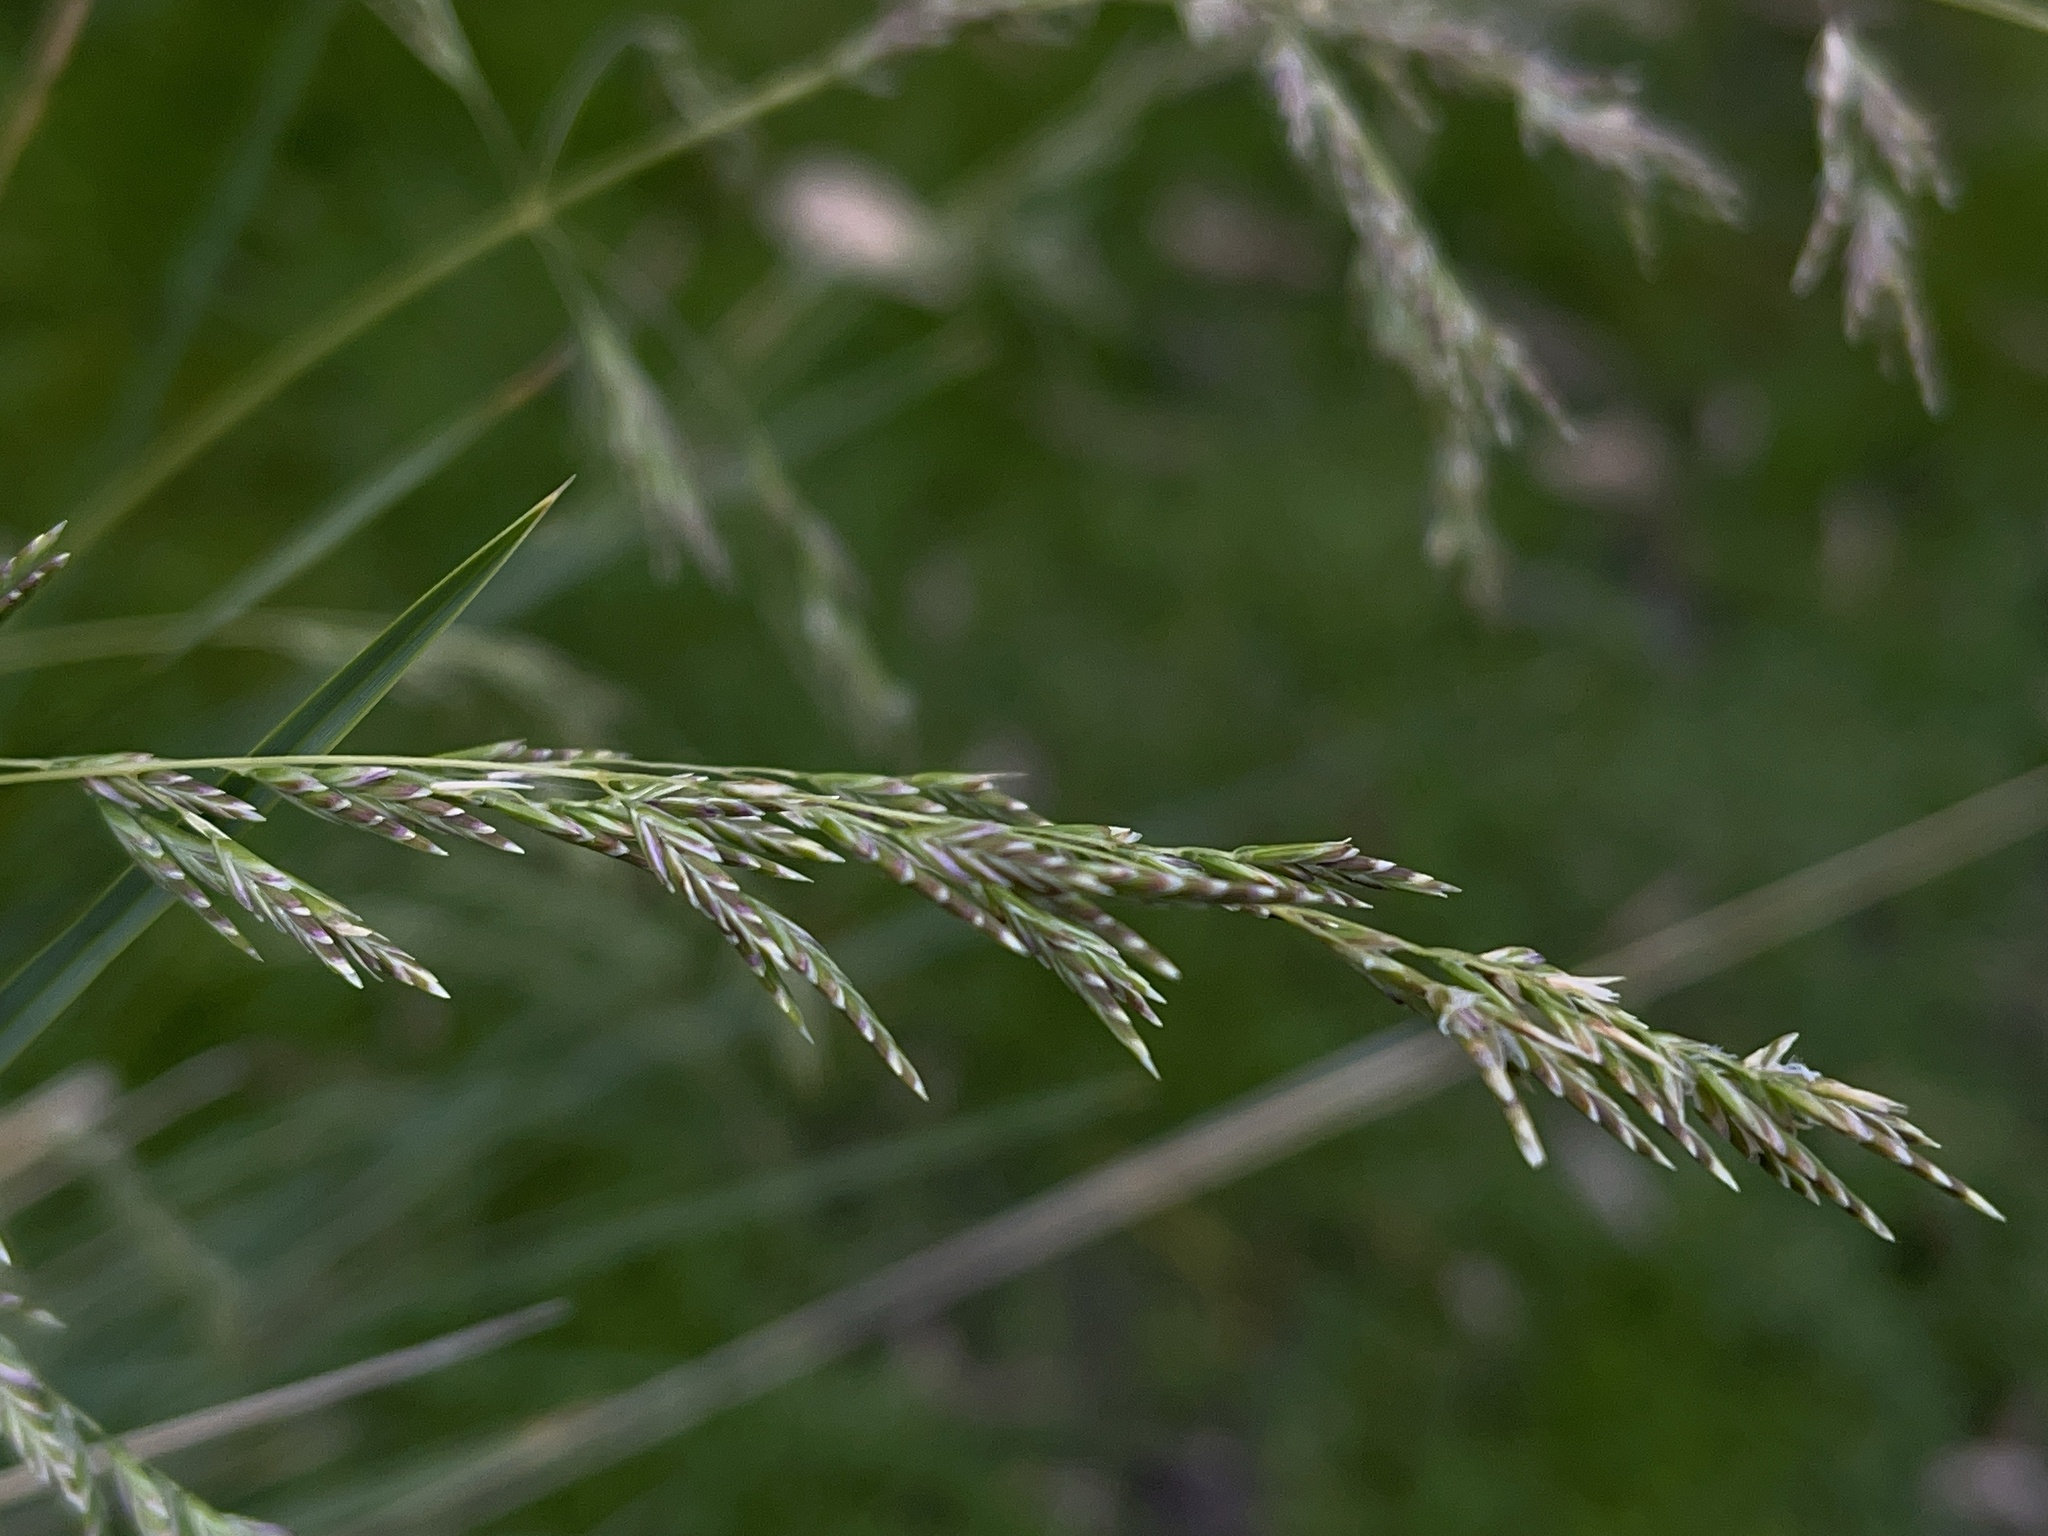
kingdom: Plantae
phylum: Tracheophyta
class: Liliopsida
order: Poales
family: Poaceae
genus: Poa
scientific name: Poa labillardierei
